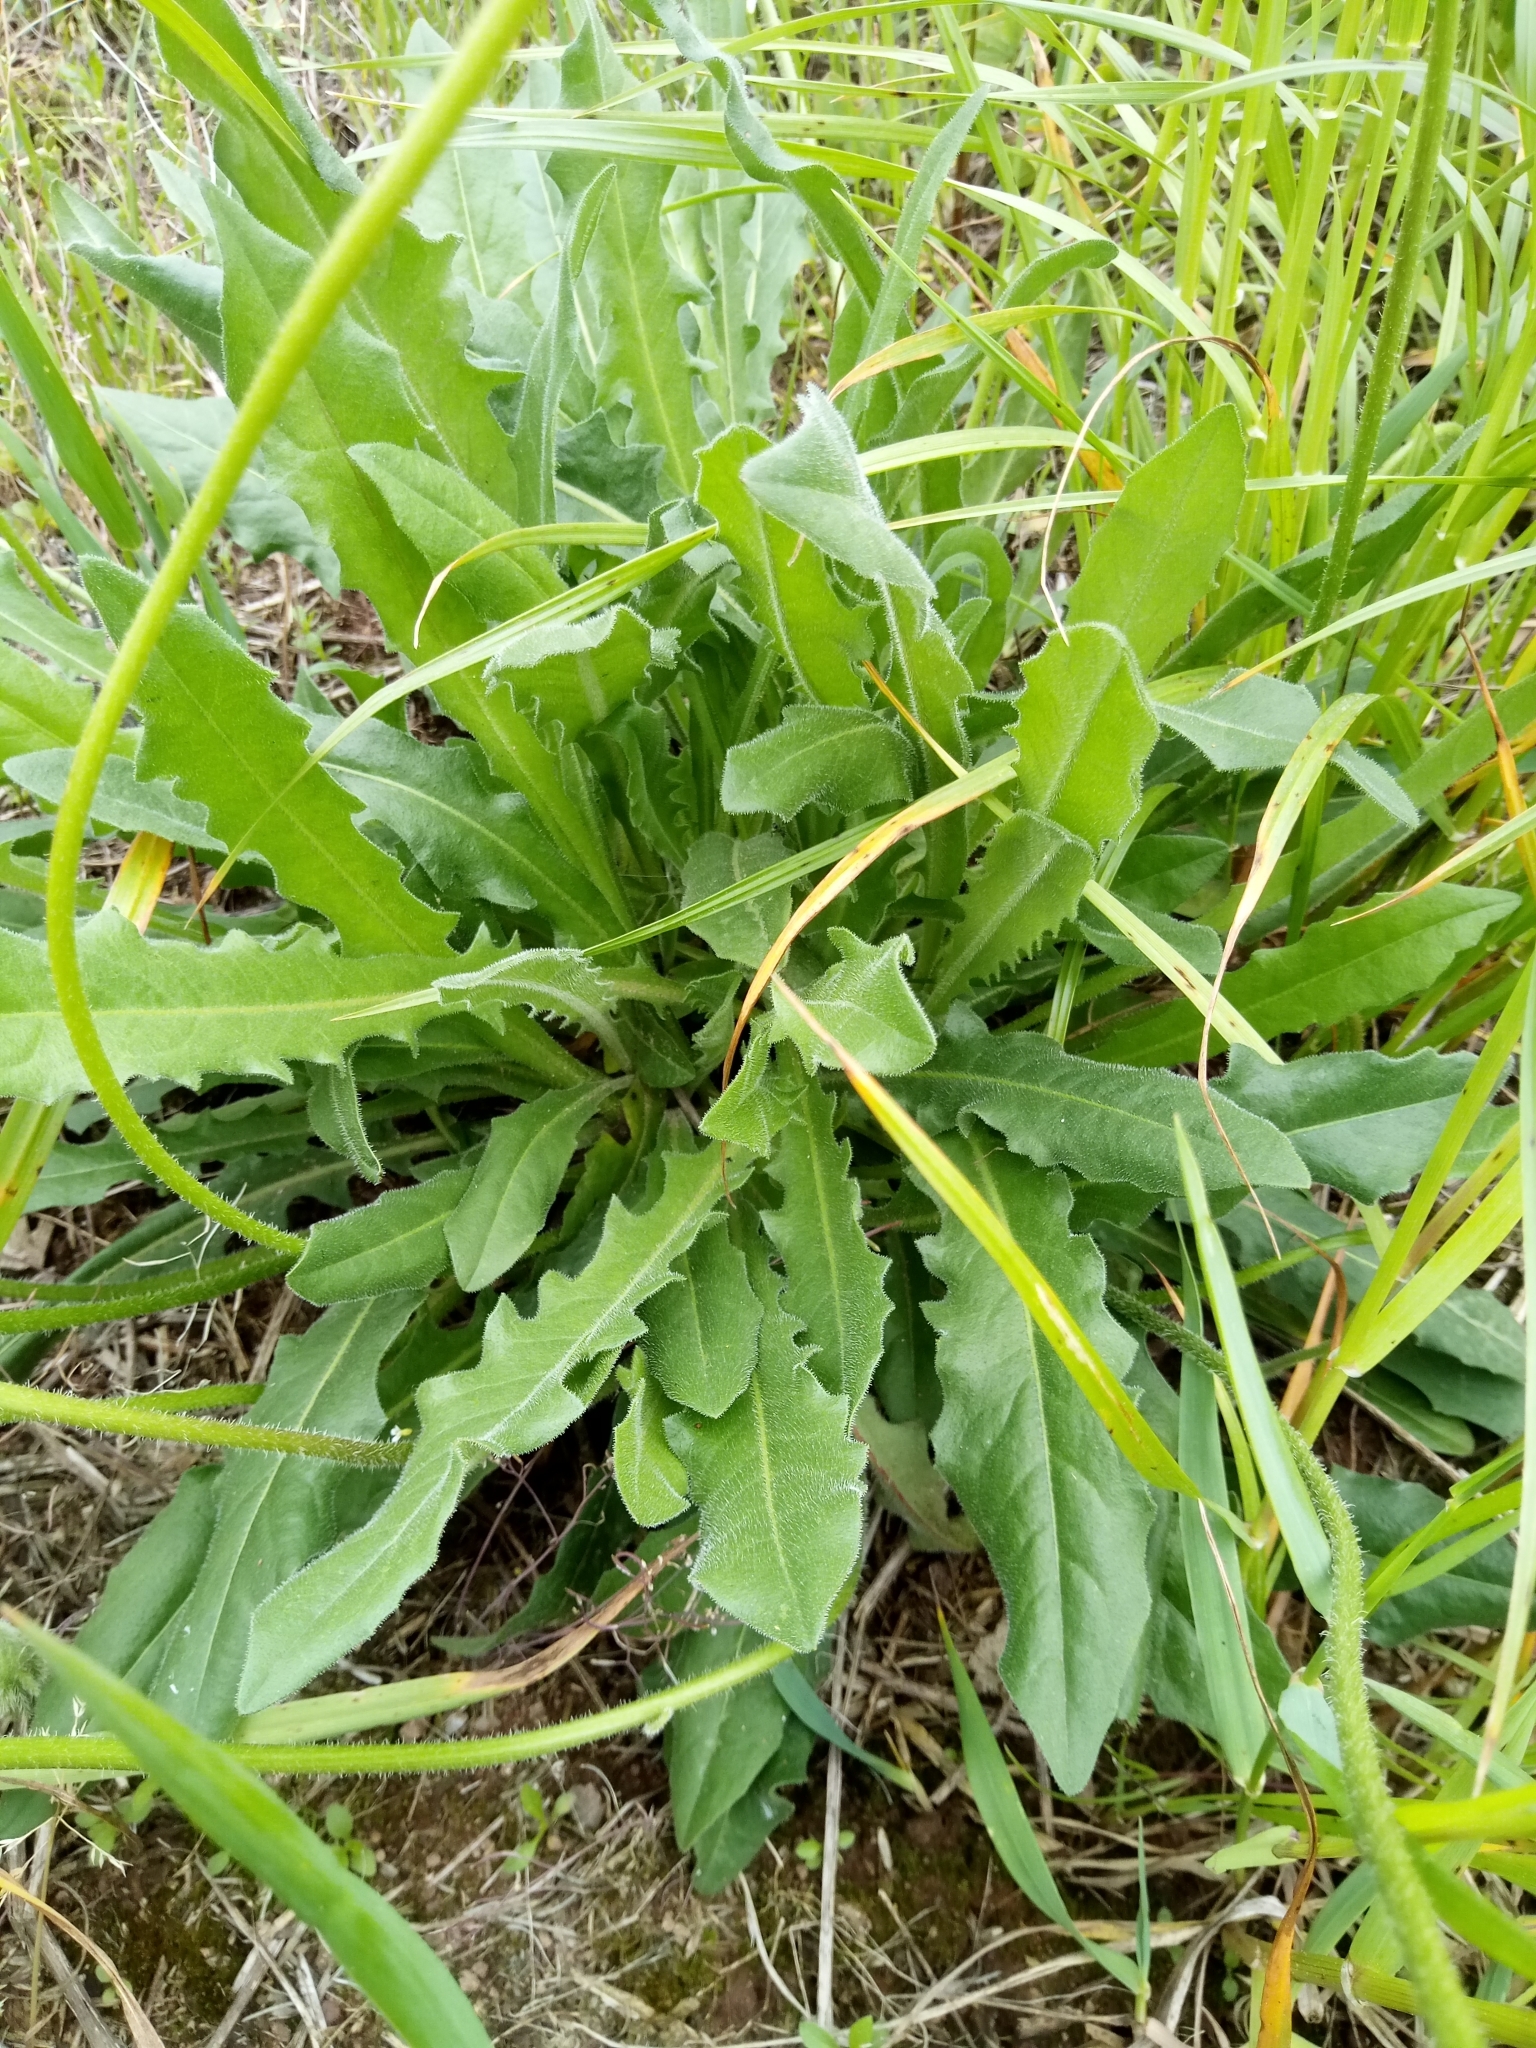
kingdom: Plantae
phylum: Tracheophyta
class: Magnoliopsida
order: Asterales
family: Asteraceae
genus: Leontodon
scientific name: Leontodon hispidus
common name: Rough hawkbit
